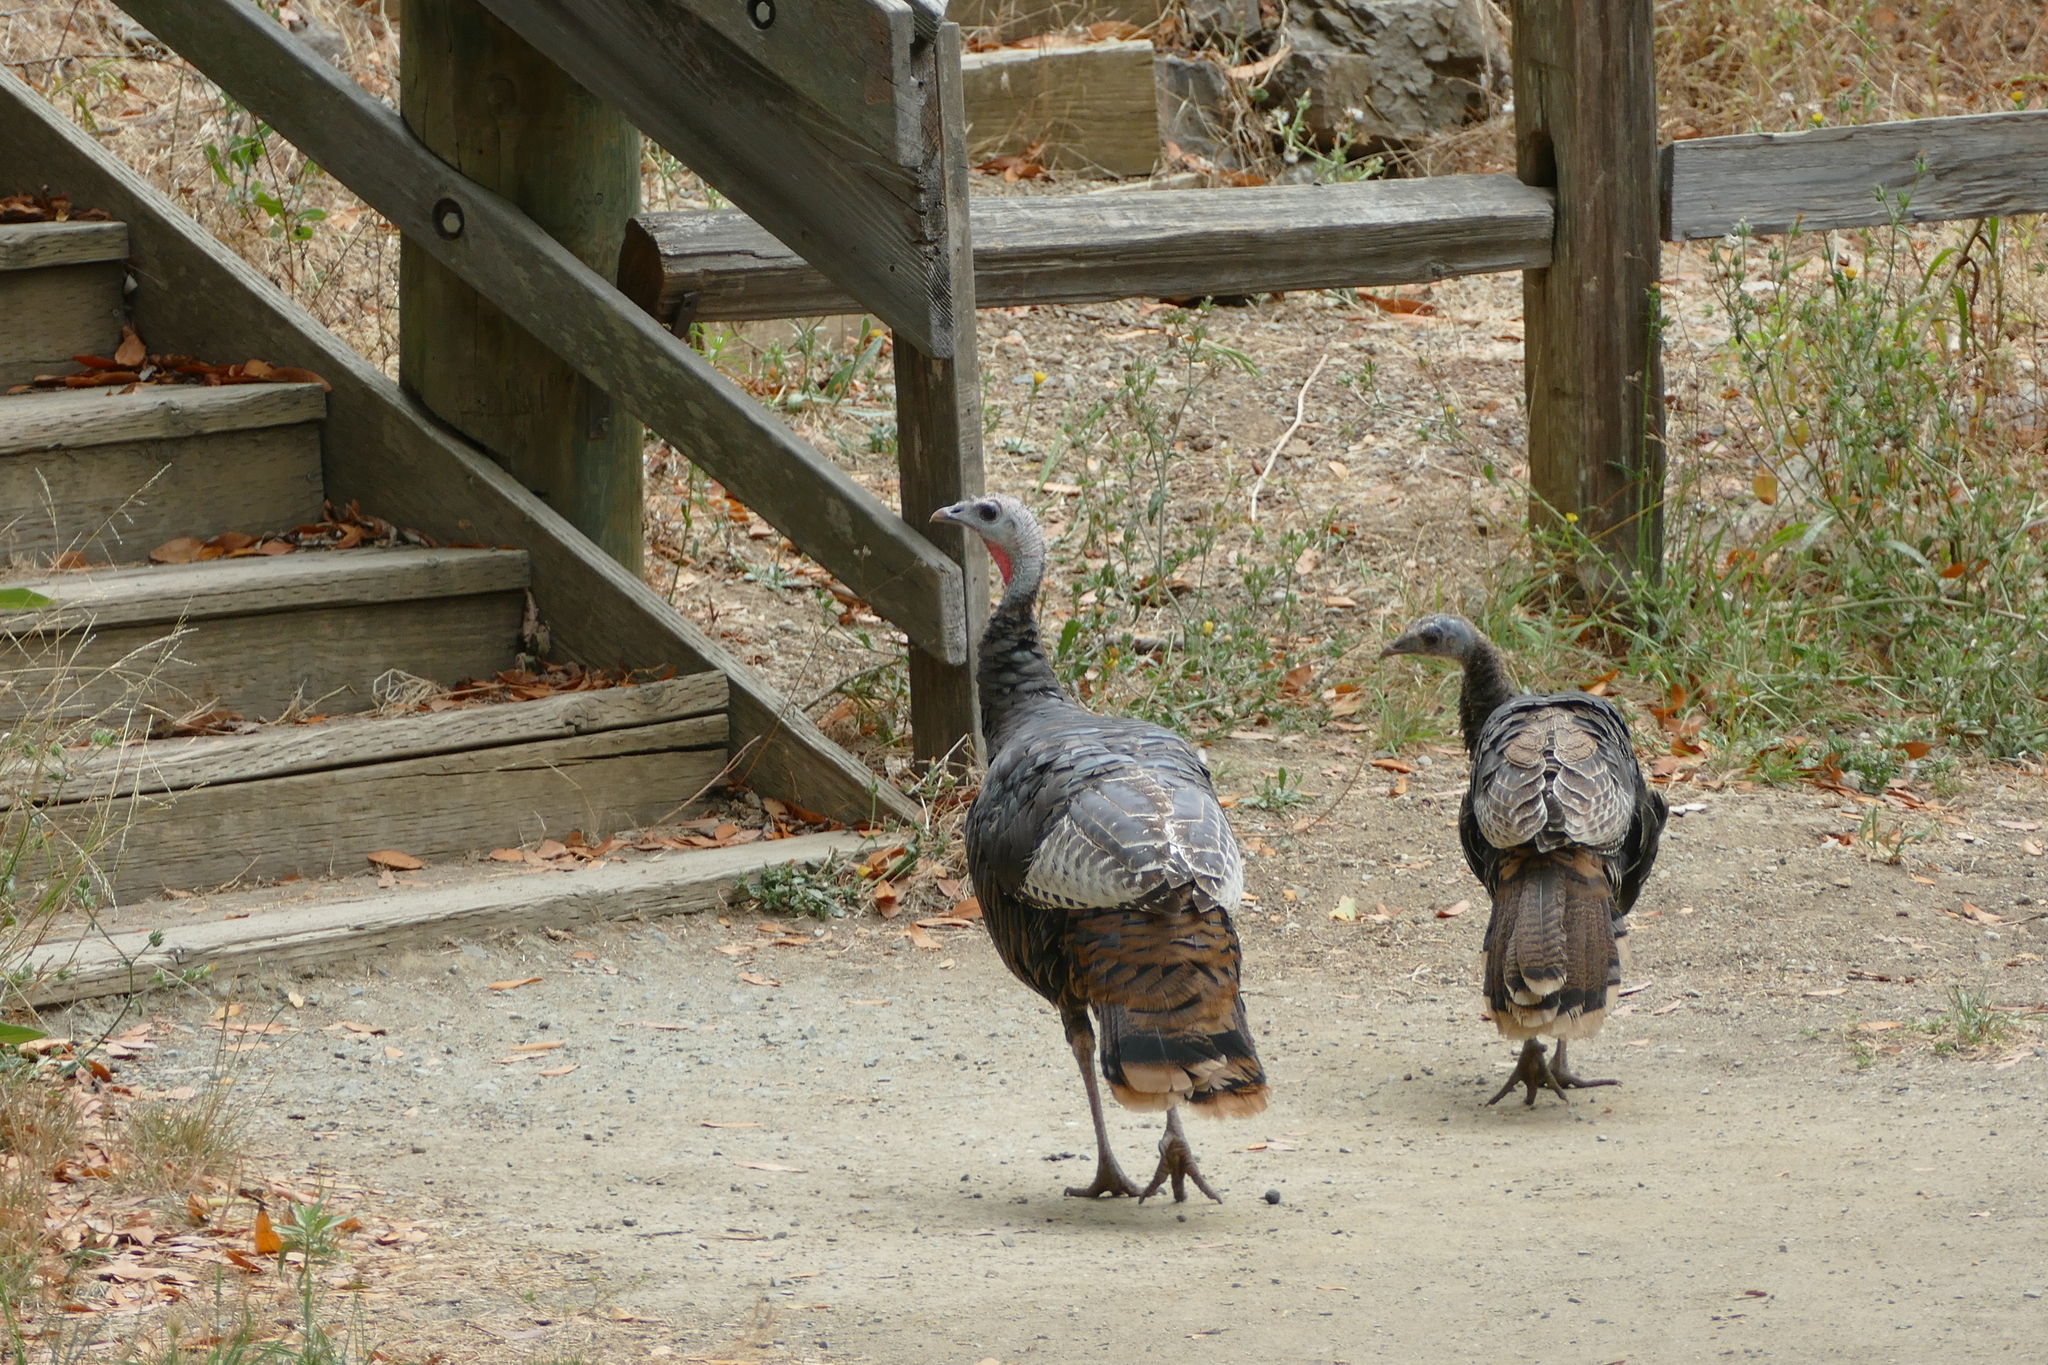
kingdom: Animalia
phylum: Chordata
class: Aves
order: Galliformes
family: Phasianidae
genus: Meleagris
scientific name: Meleagris gallopavo
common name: Wild turkey
